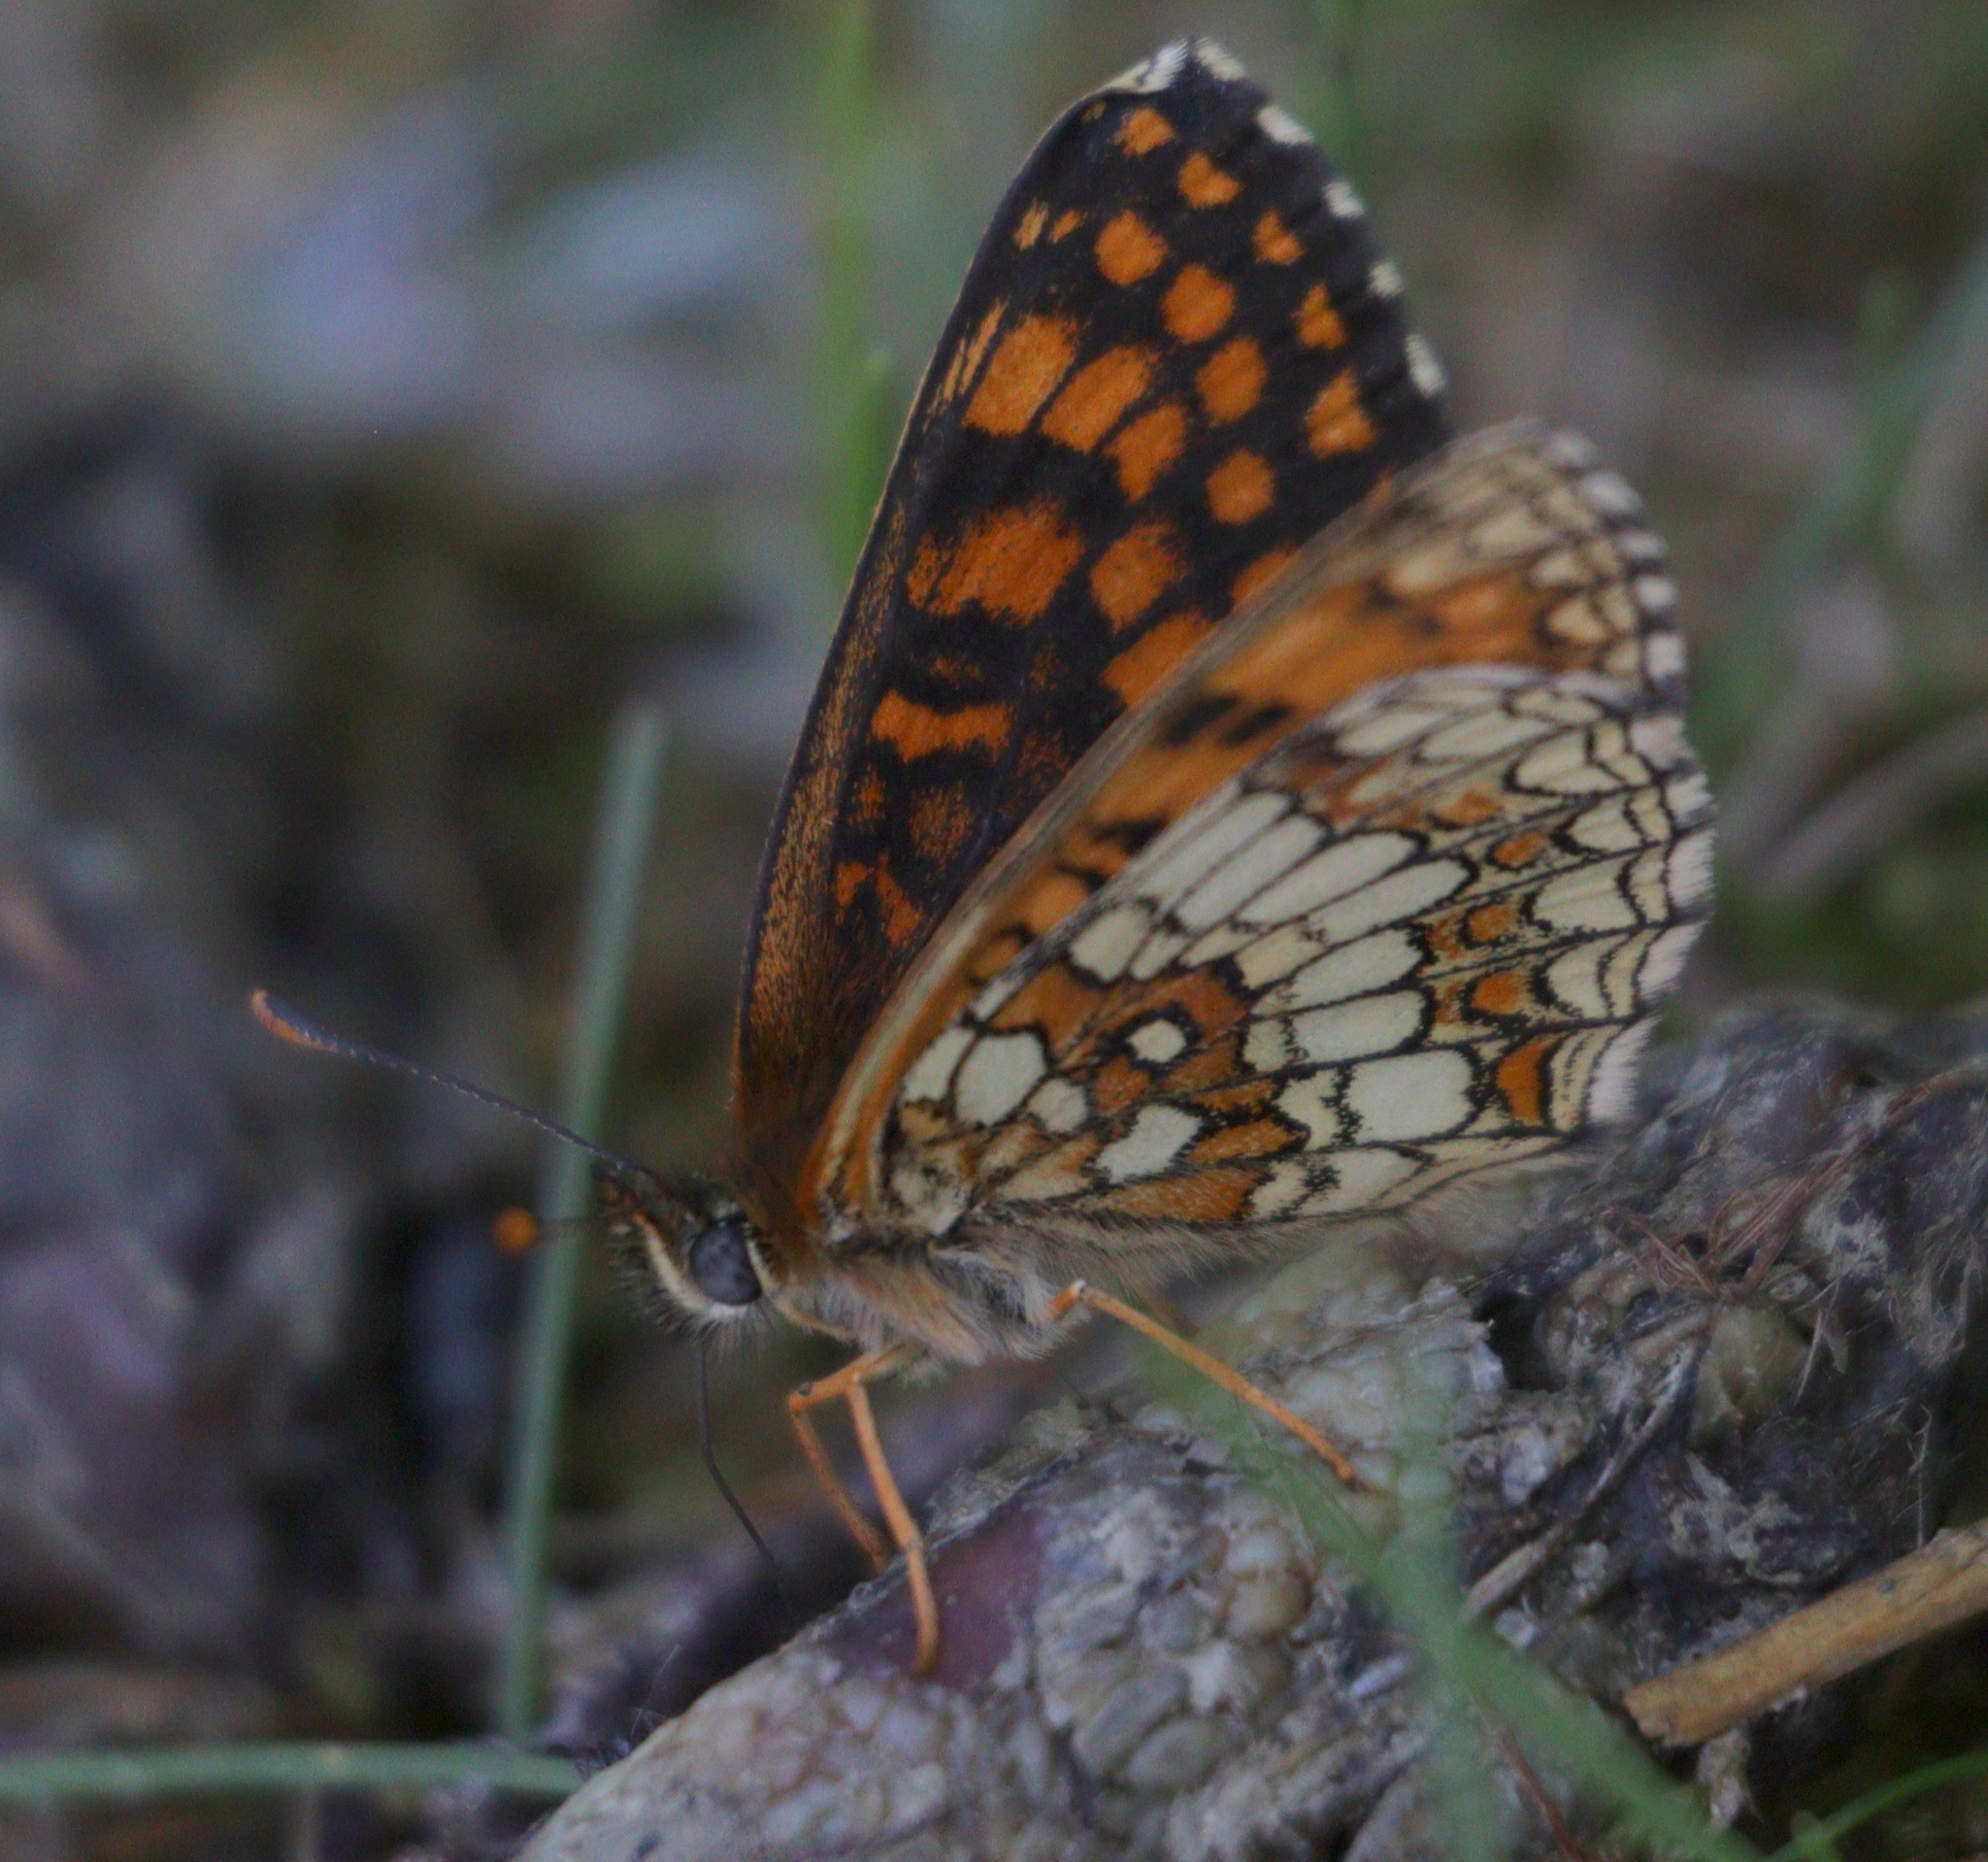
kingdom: Animalia
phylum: Arthropoda
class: Insecta
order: Lepidoptera
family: Nymphalidae
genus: Melitaea
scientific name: Melitaea athalia
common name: Heath fritillary
